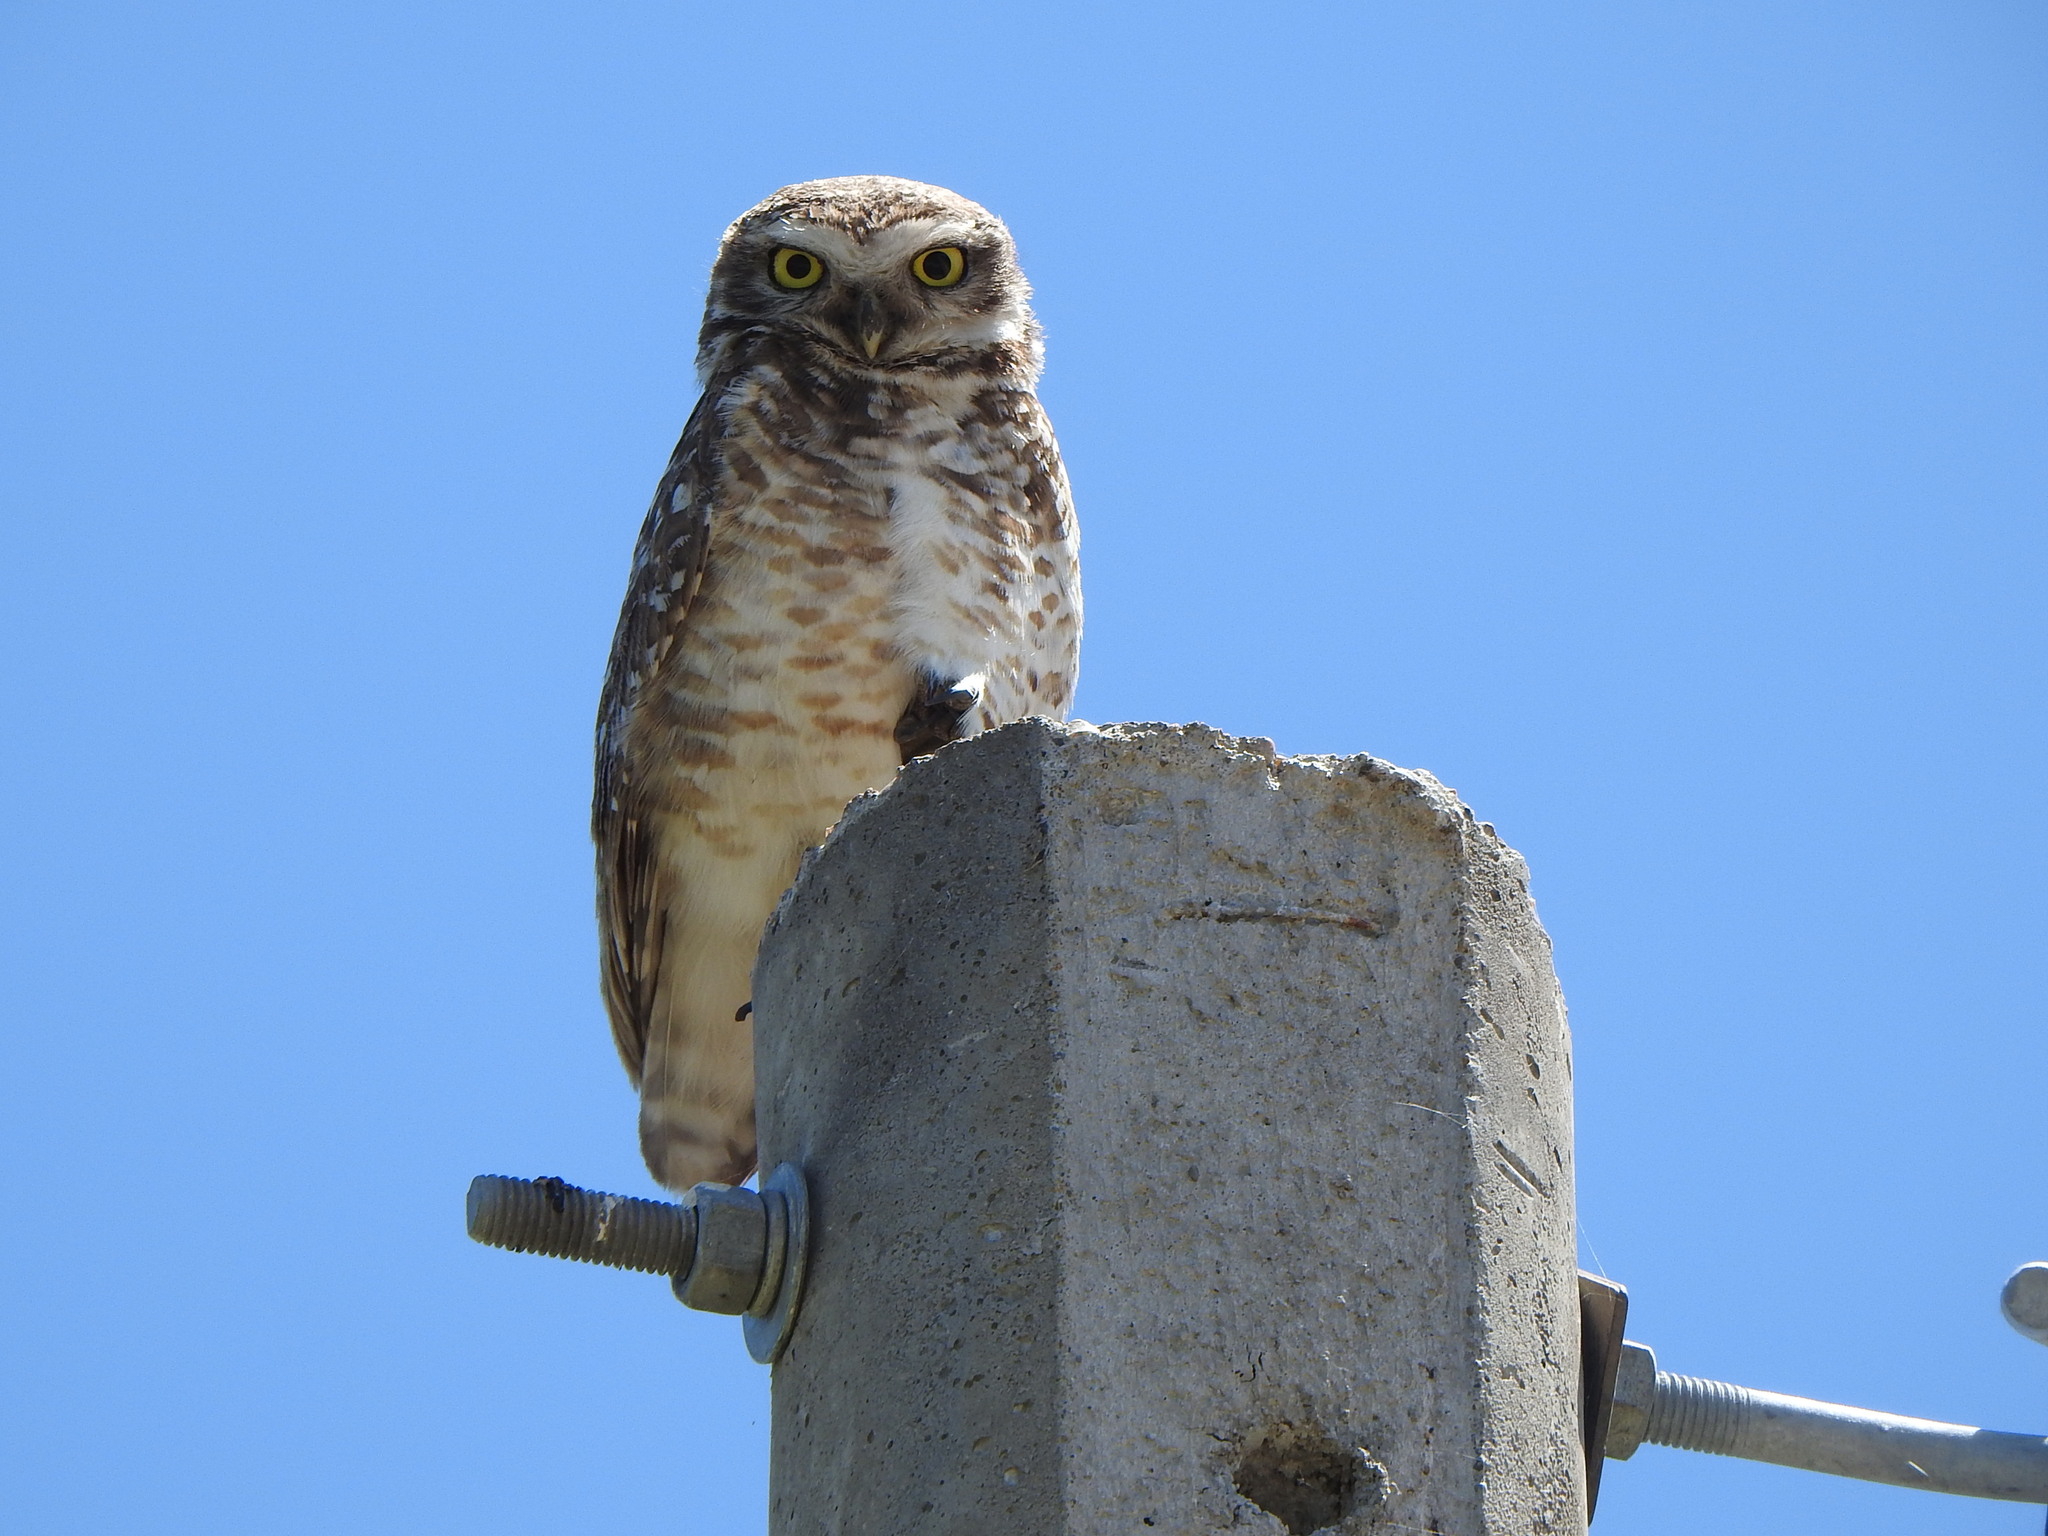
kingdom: Animalia
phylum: Chordata
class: Aves
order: Strigiformes
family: Strigidae
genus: Athene
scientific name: Athene cunicularia
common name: Burrowing owl
